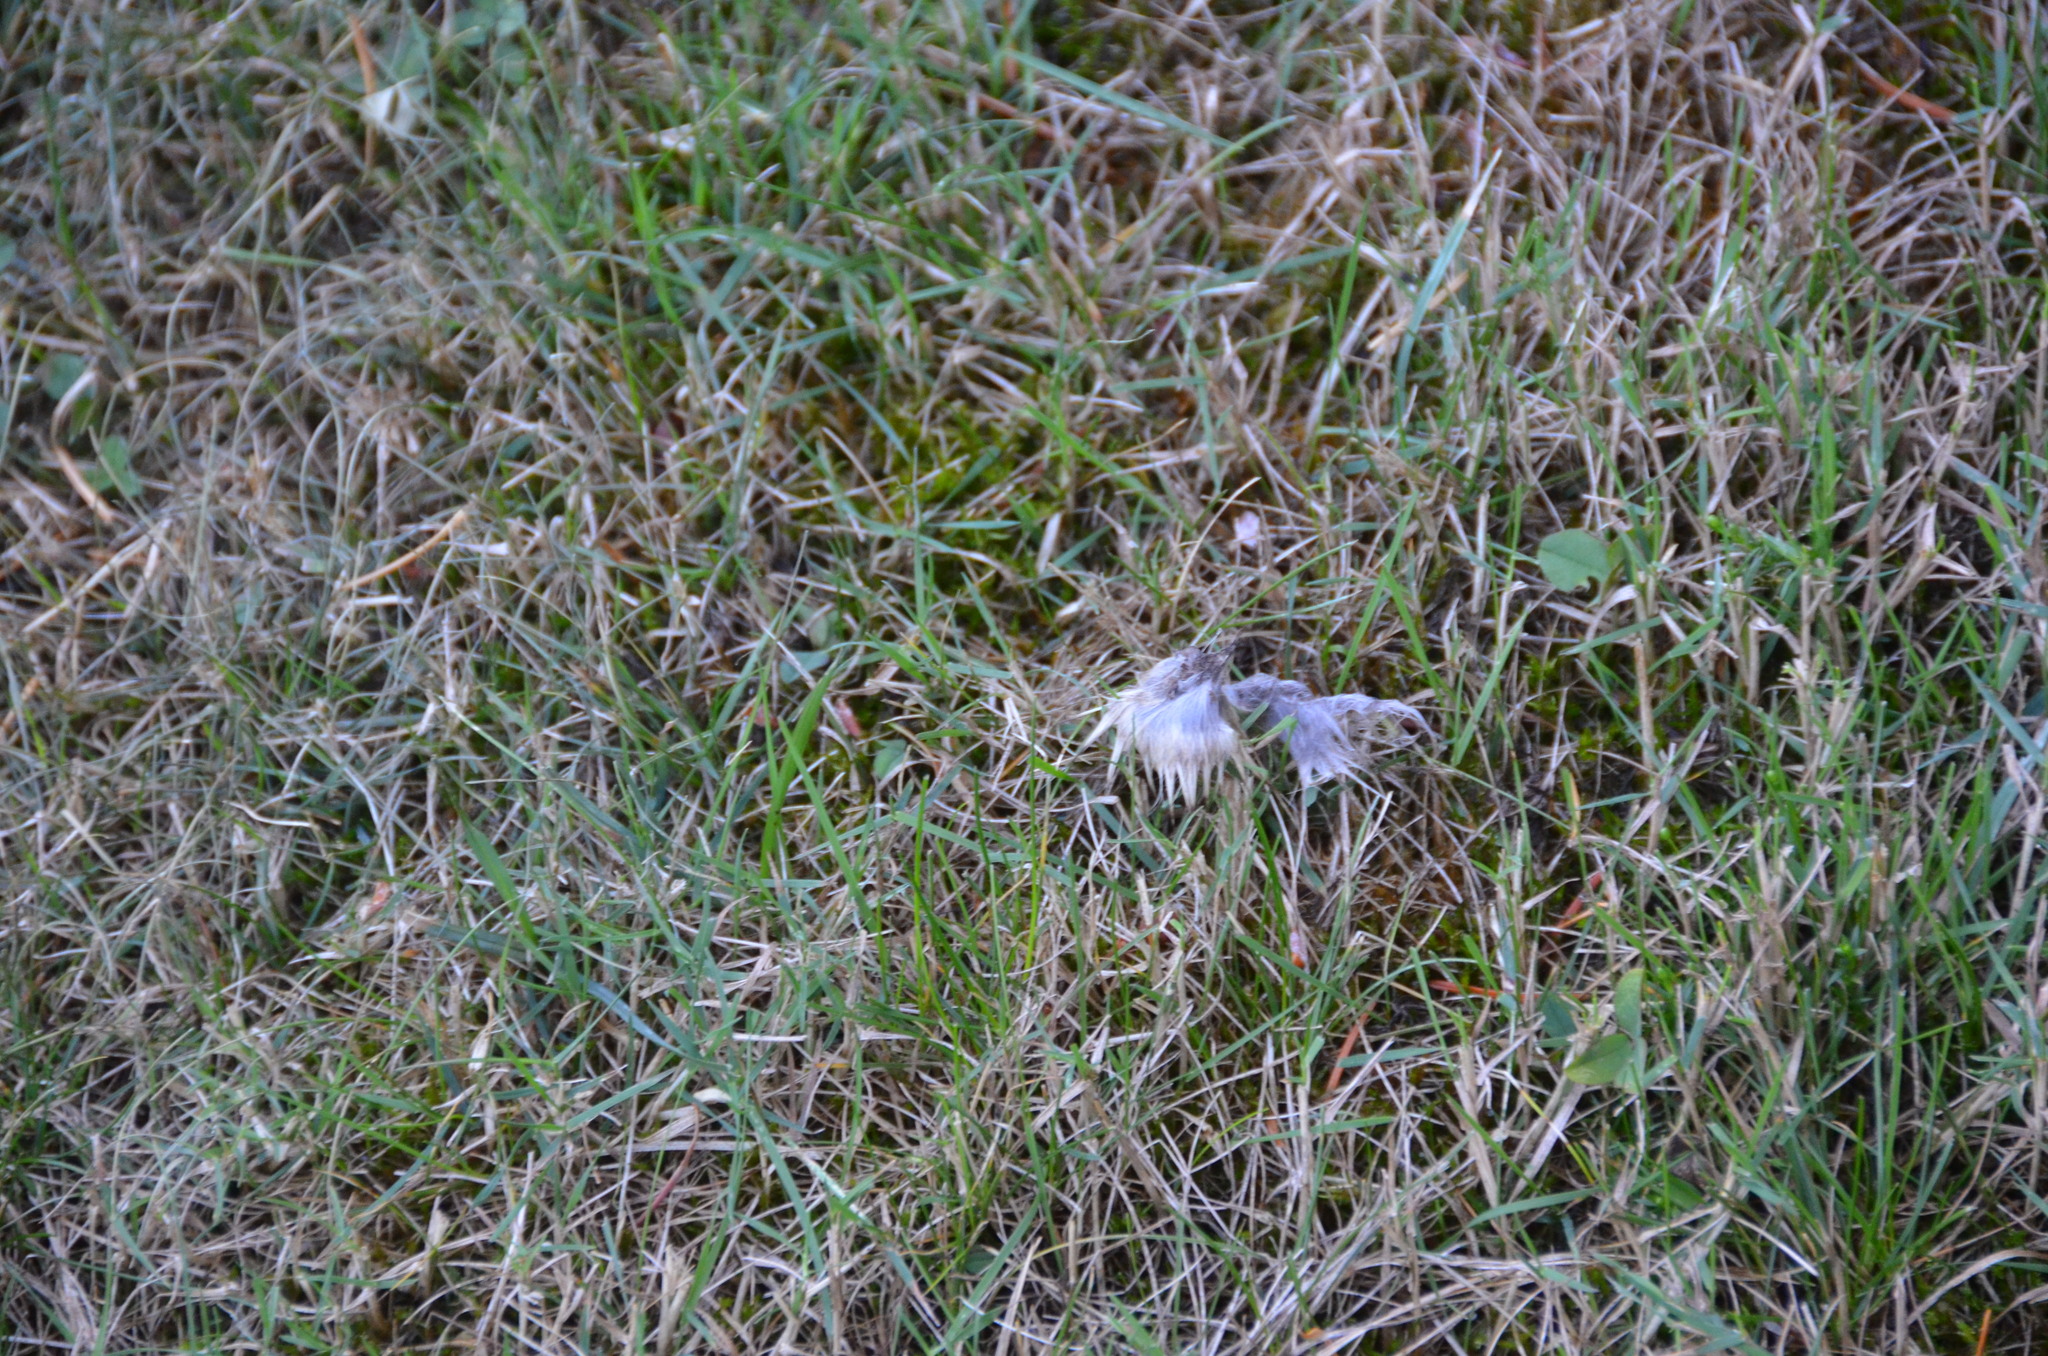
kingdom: Animalia
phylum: Chordata
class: Mammalia
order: Lagomorpha
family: Leporidae
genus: Sylvilagus
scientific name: Sylvilagus floridanus
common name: Eastern cottontail
